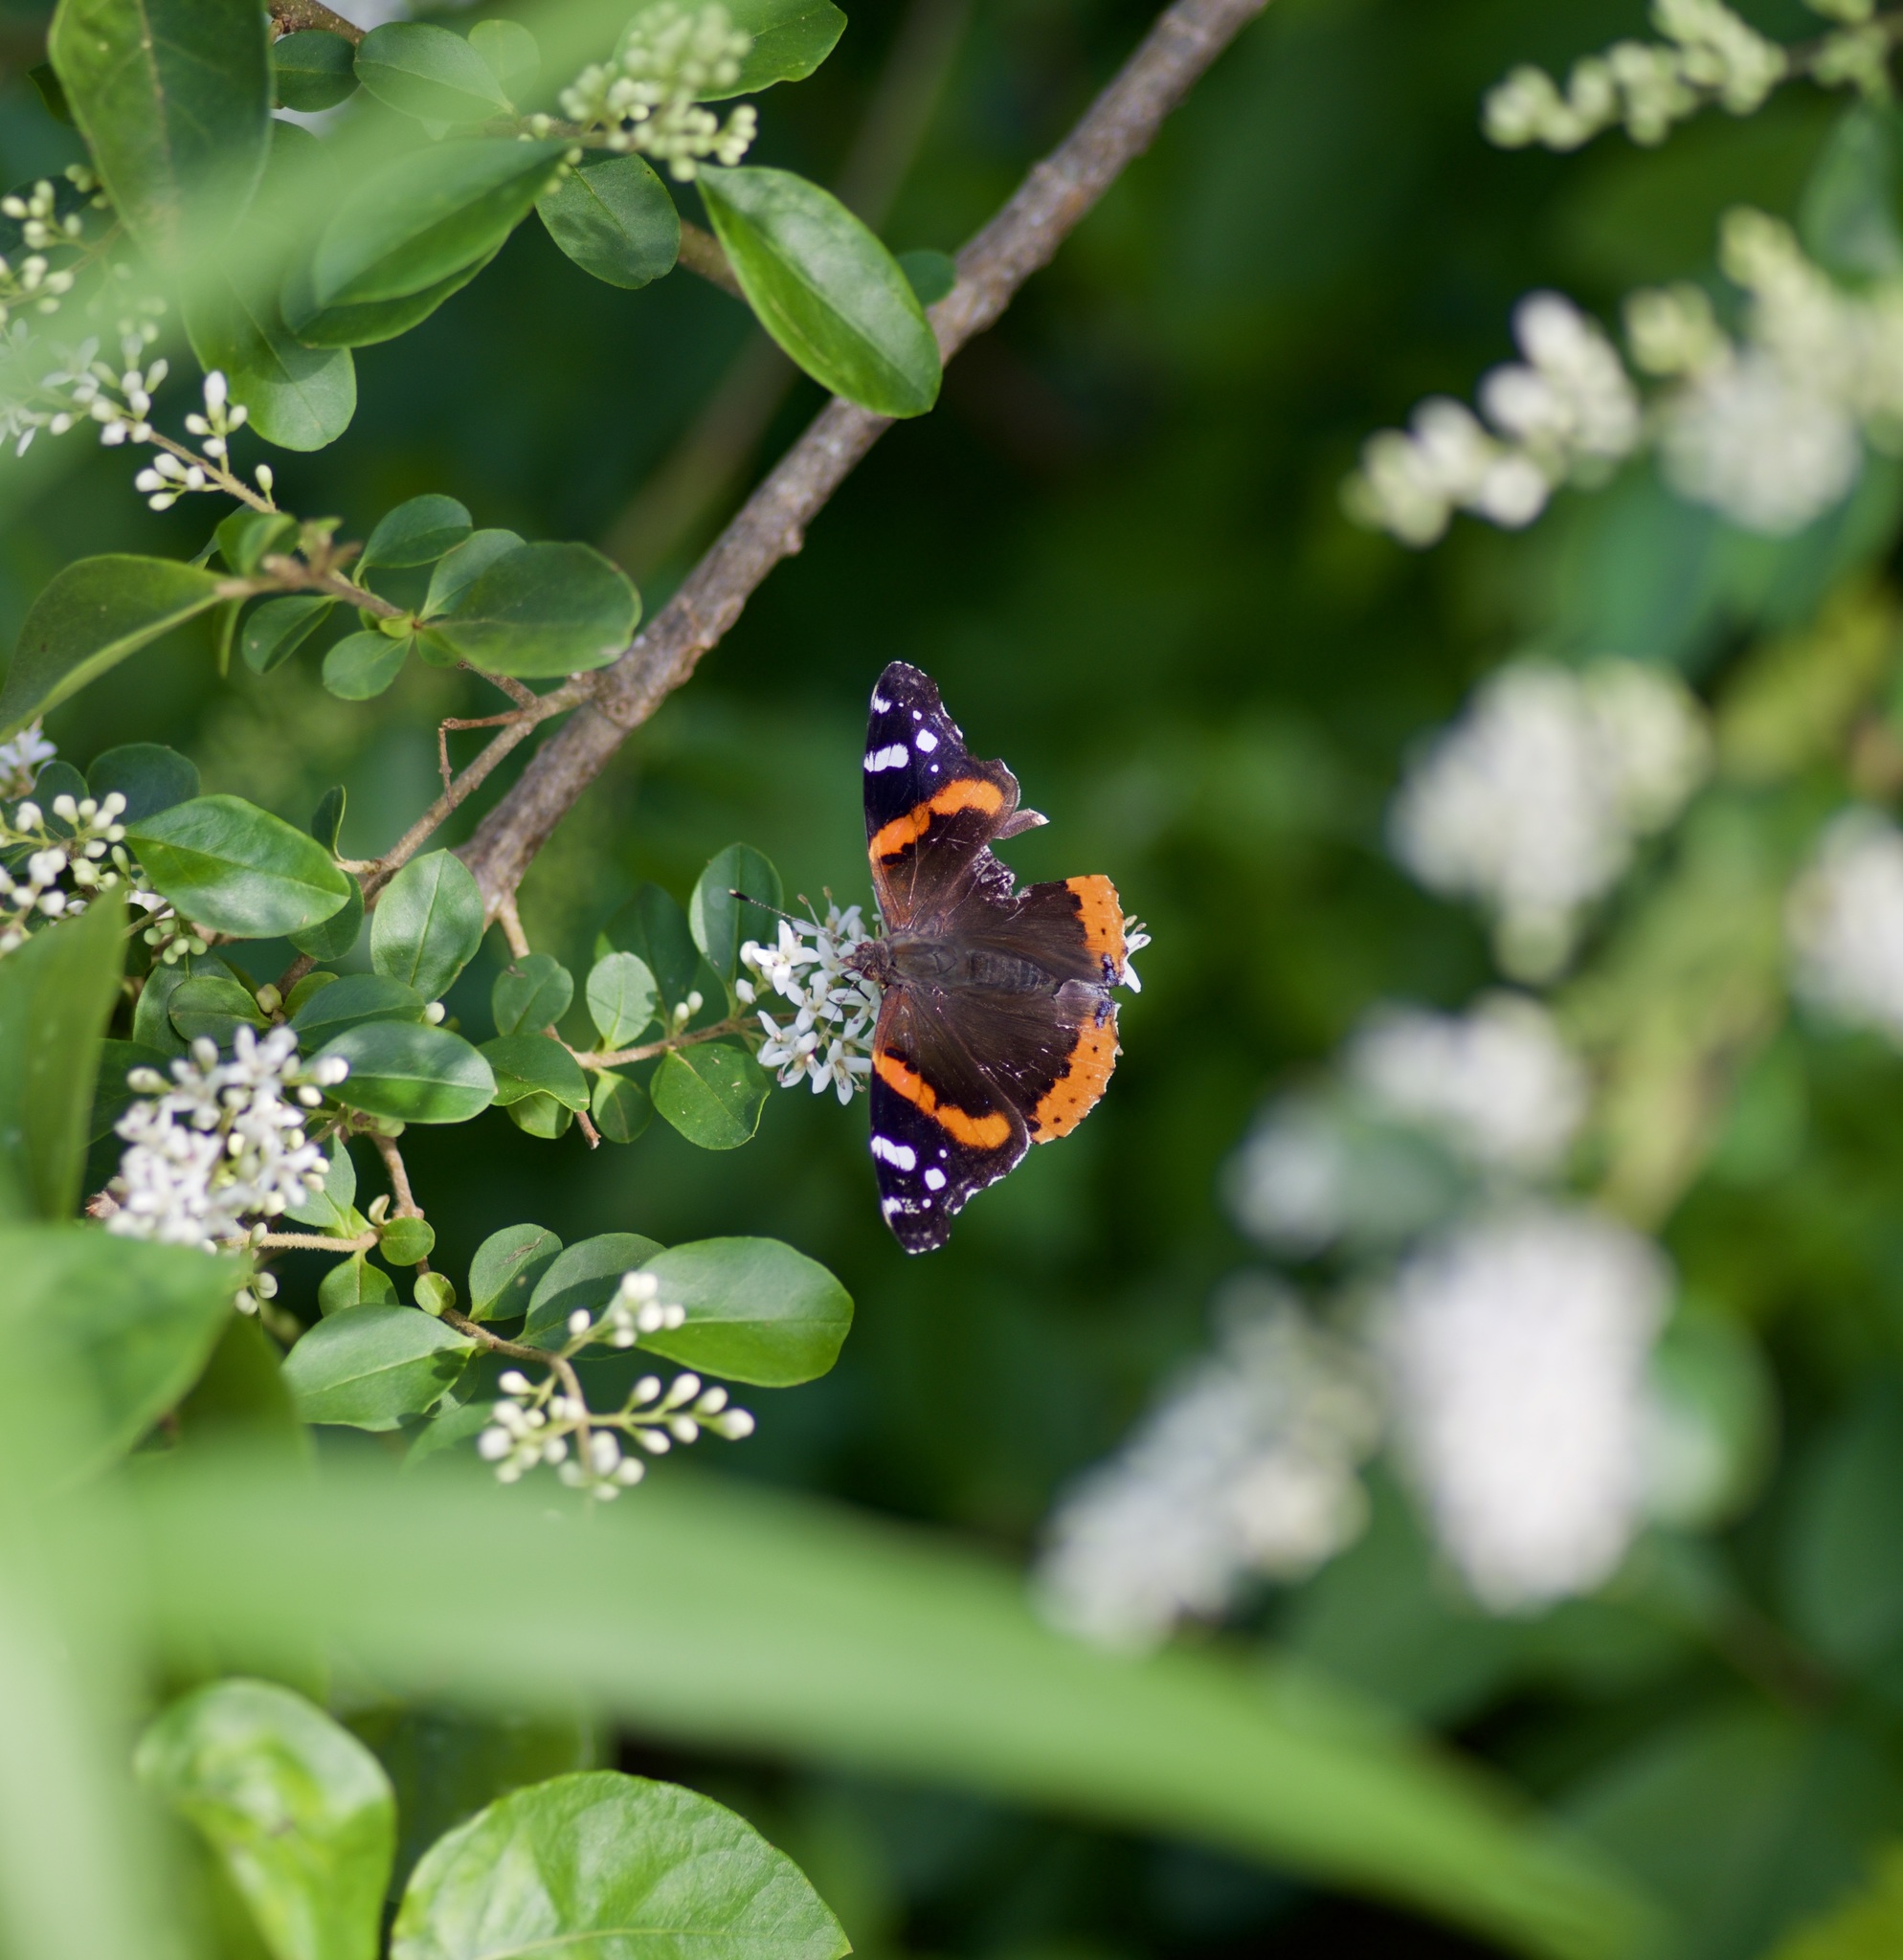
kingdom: Animalia
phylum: Arthropoda
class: Insecta
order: Lepidoptera
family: Nymphalidae
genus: Vanessa
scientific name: Vanessa atalanta
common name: Red admiral
